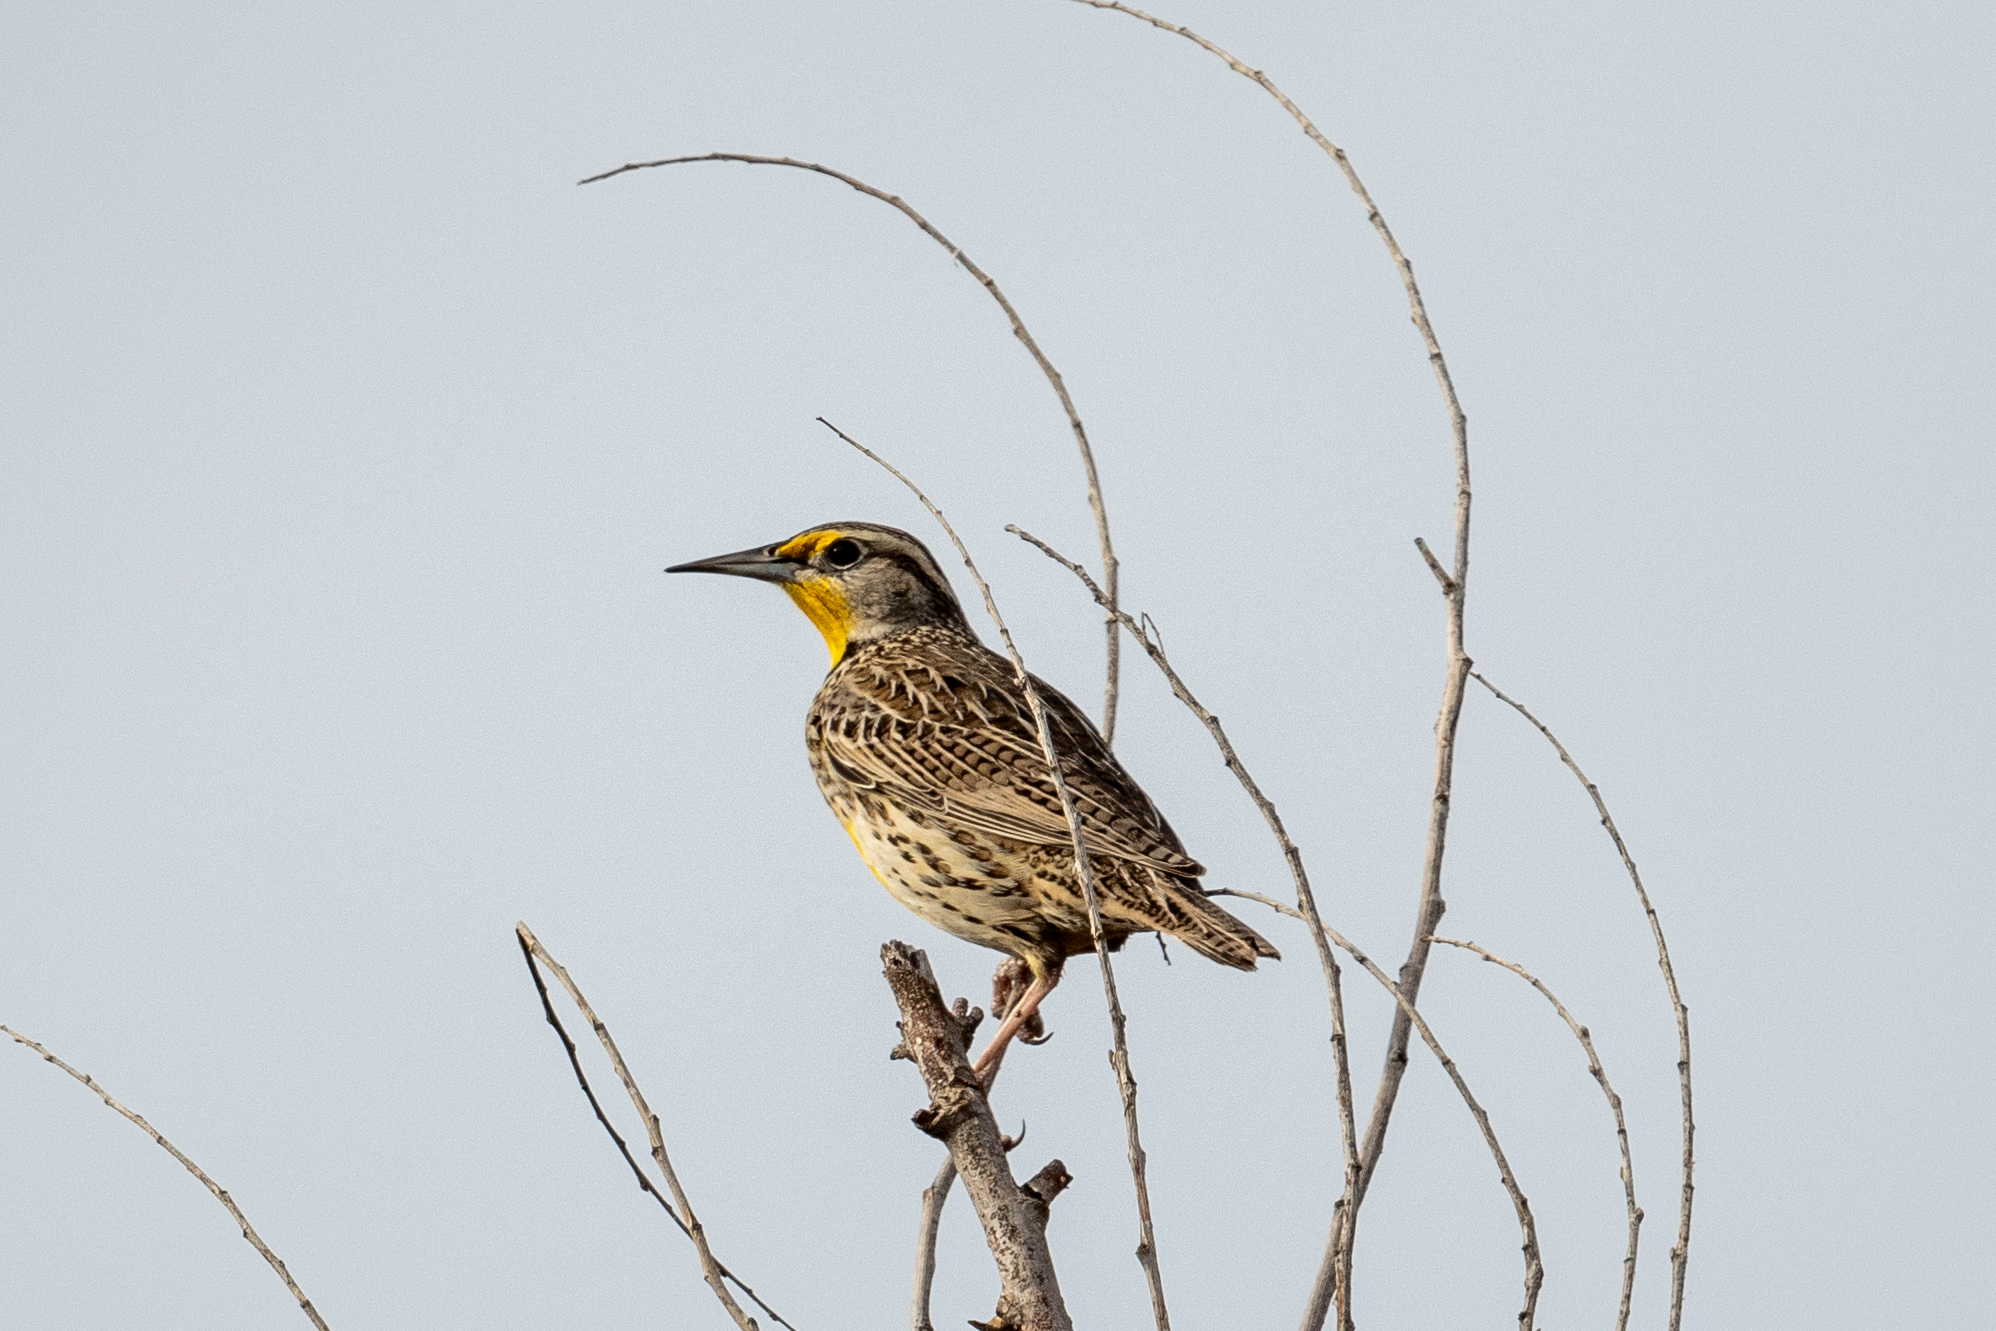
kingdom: Animalia
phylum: Chordata
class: Aves
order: Passeriformes
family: Icteridae
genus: Sturnella
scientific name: Sturnella neglecta
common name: Western meadowlark
